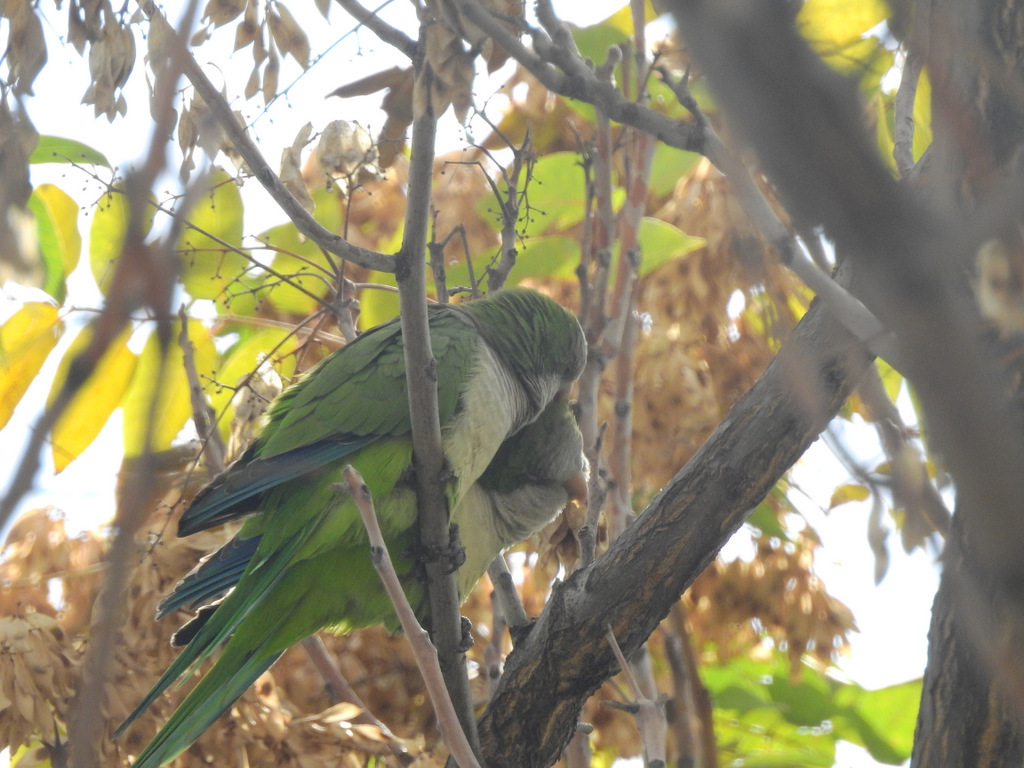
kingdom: Animalia
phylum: Chordata
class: Aves
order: Psittaciformes
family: Psittacidae
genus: Myiopsitta
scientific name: Myiopsitta monachus
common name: Monk parakeet
